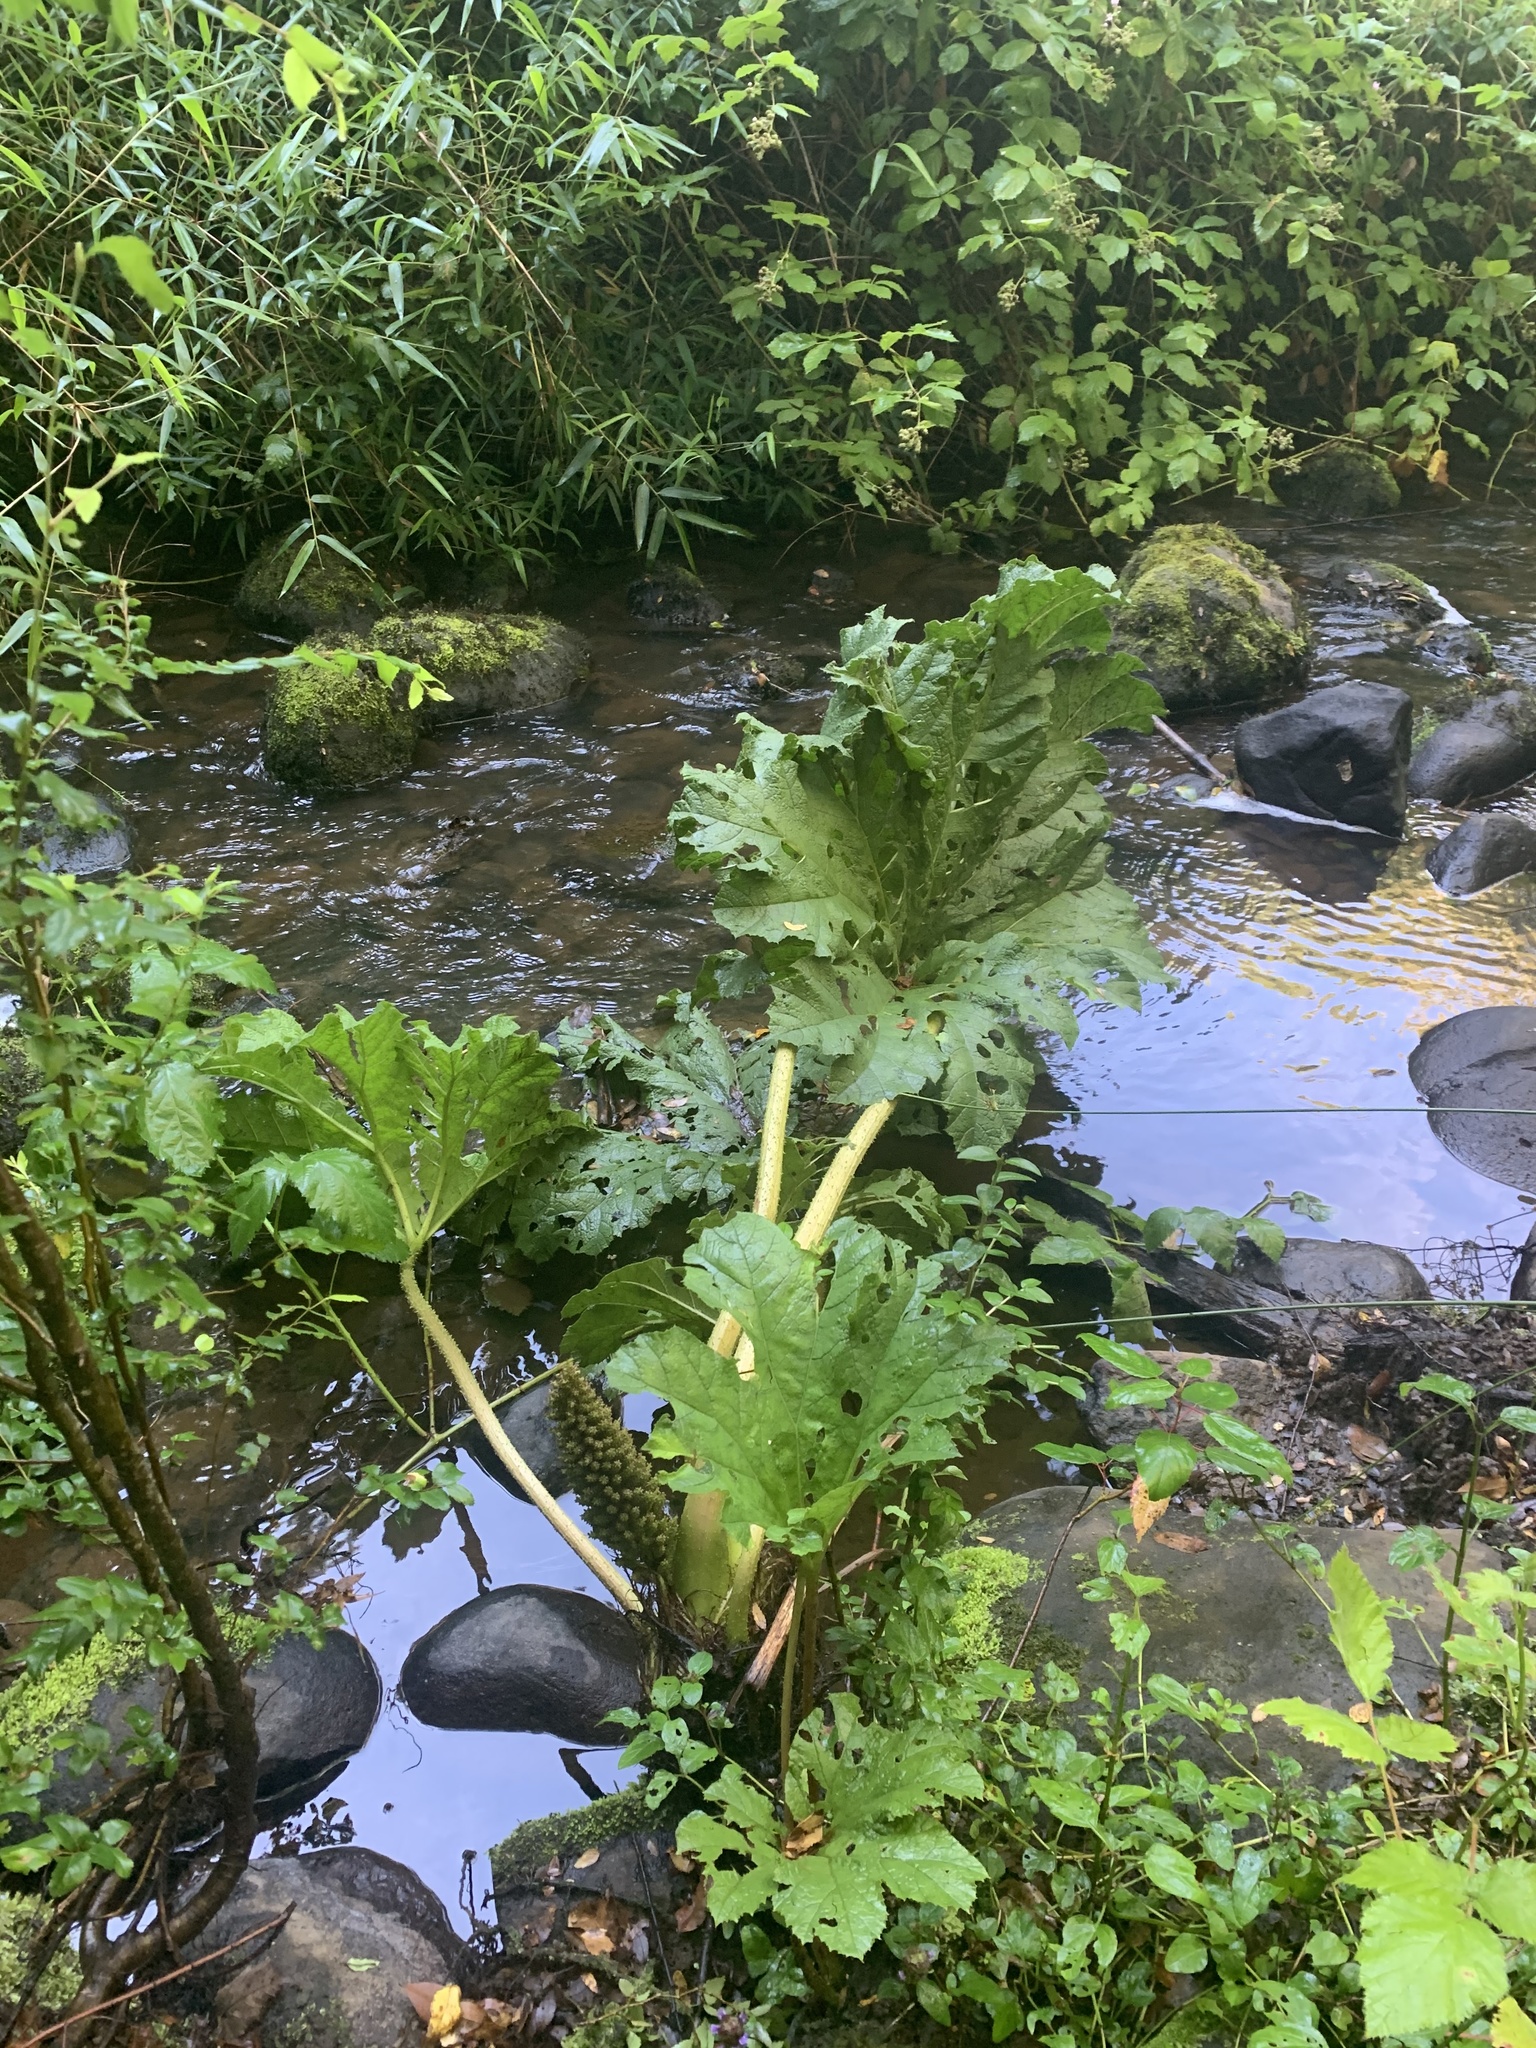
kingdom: Plantae
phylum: Tracheophyta
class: Magnoliopsida
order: Gunnerales
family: Gunneraceae
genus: Gunnera
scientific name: Gunnera tinctoria
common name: Giant-rhubarb
